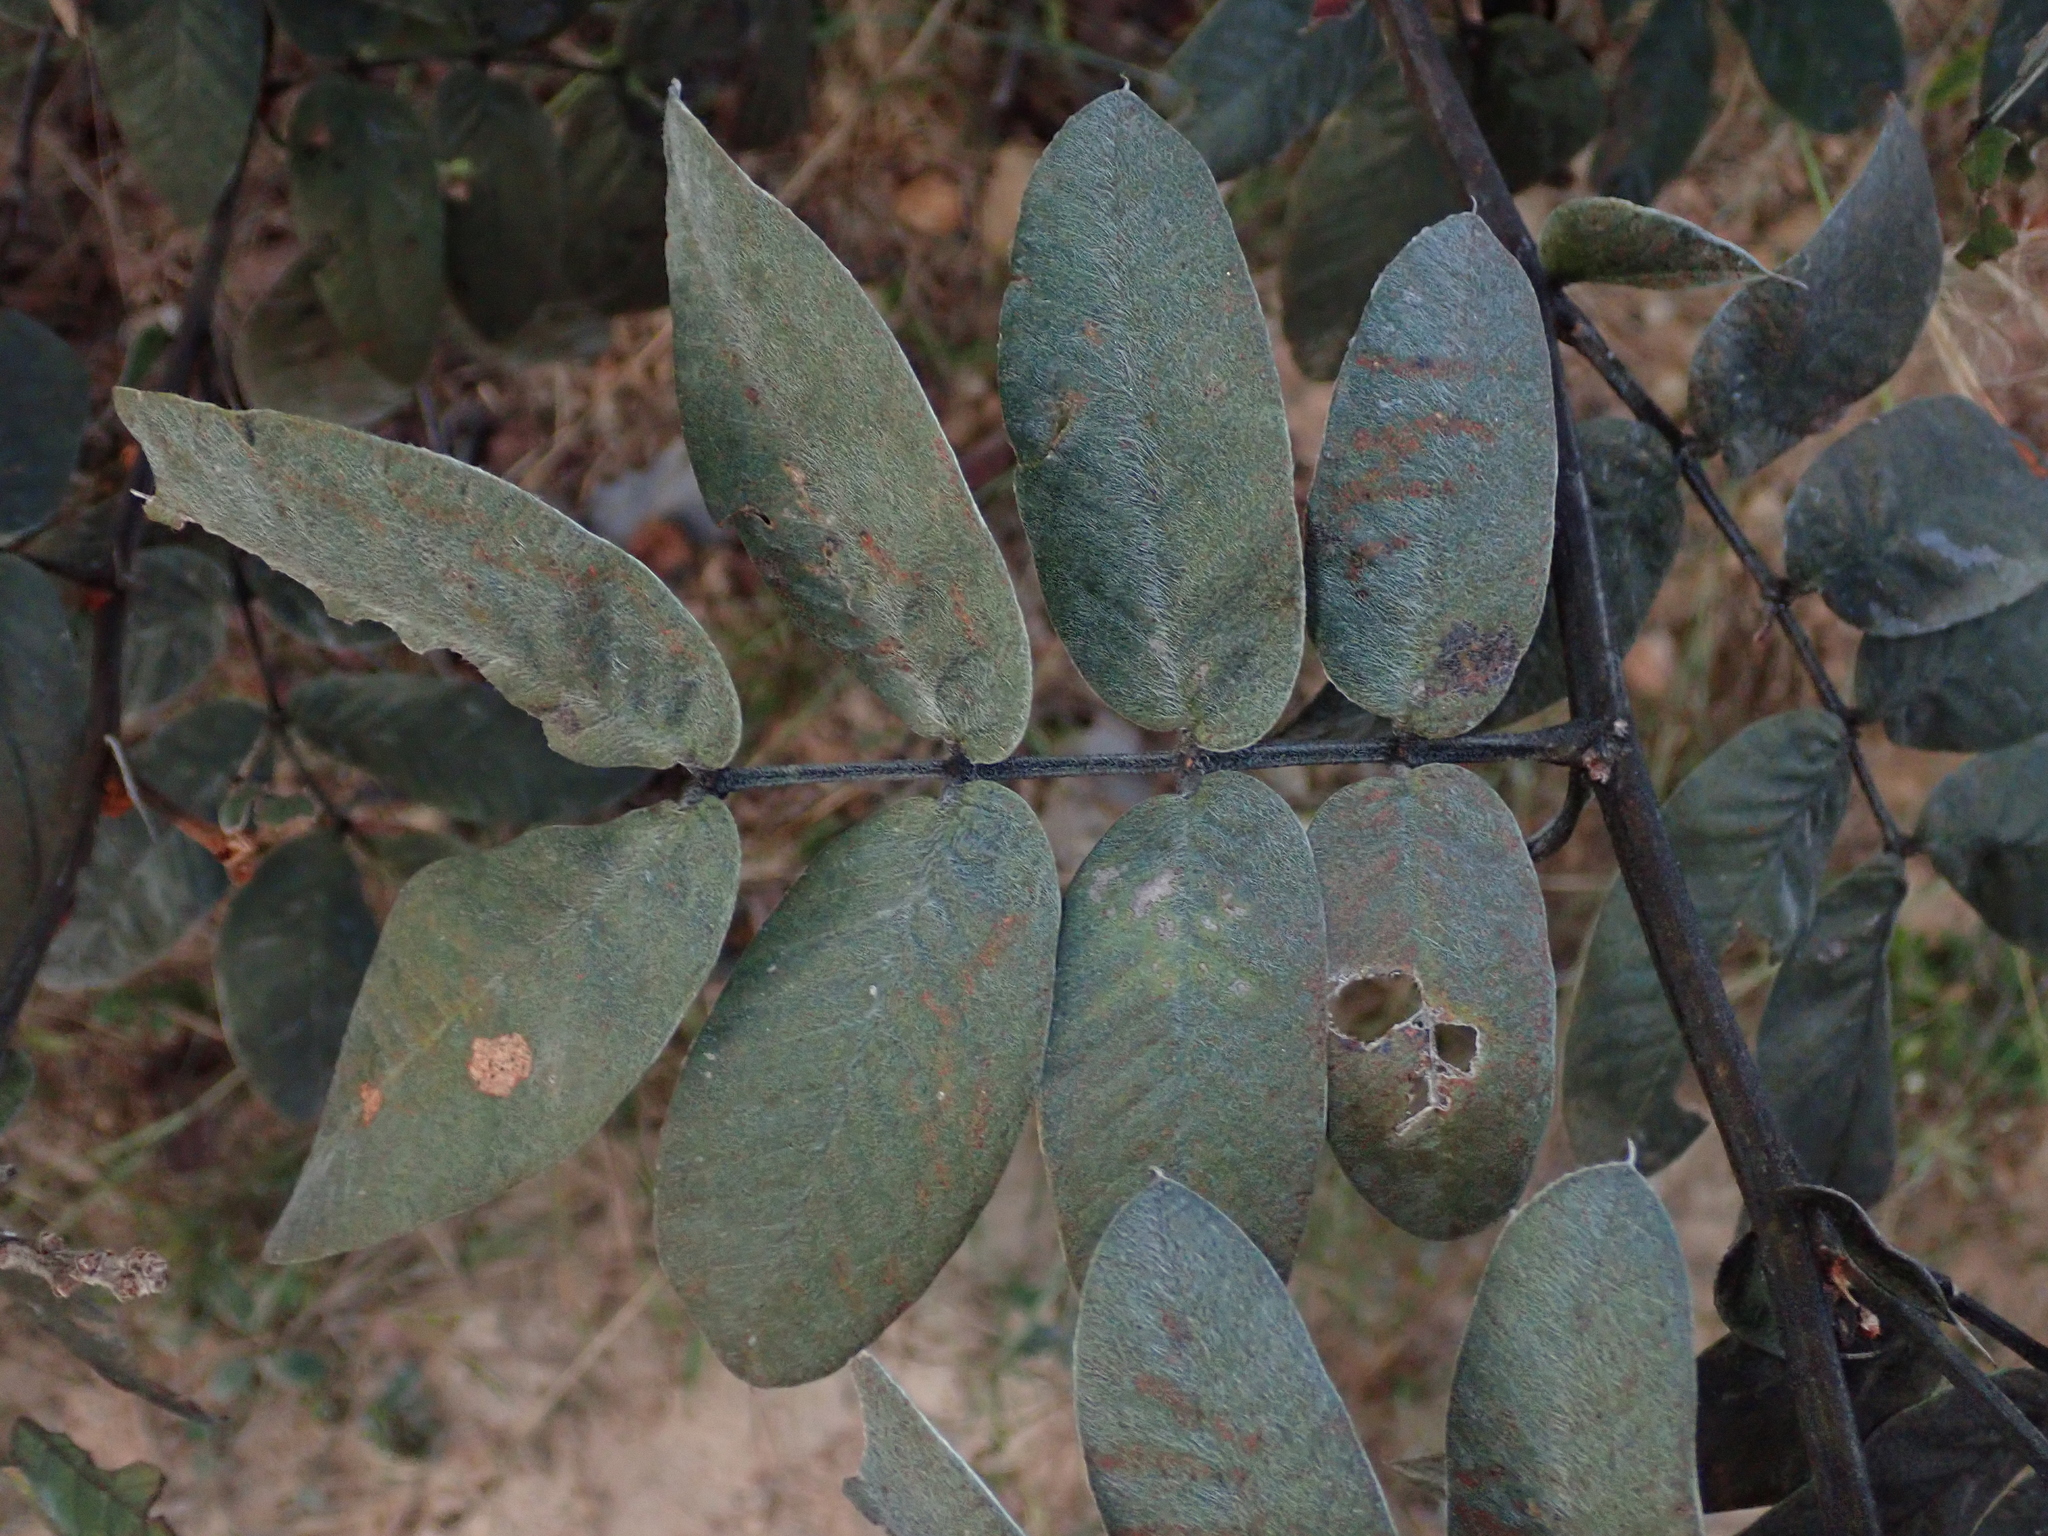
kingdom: Plantae
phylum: Tracheophyta
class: Magnoliopsida
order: Fabales
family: Fabaceae
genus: Senna
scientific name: Senna velutina
